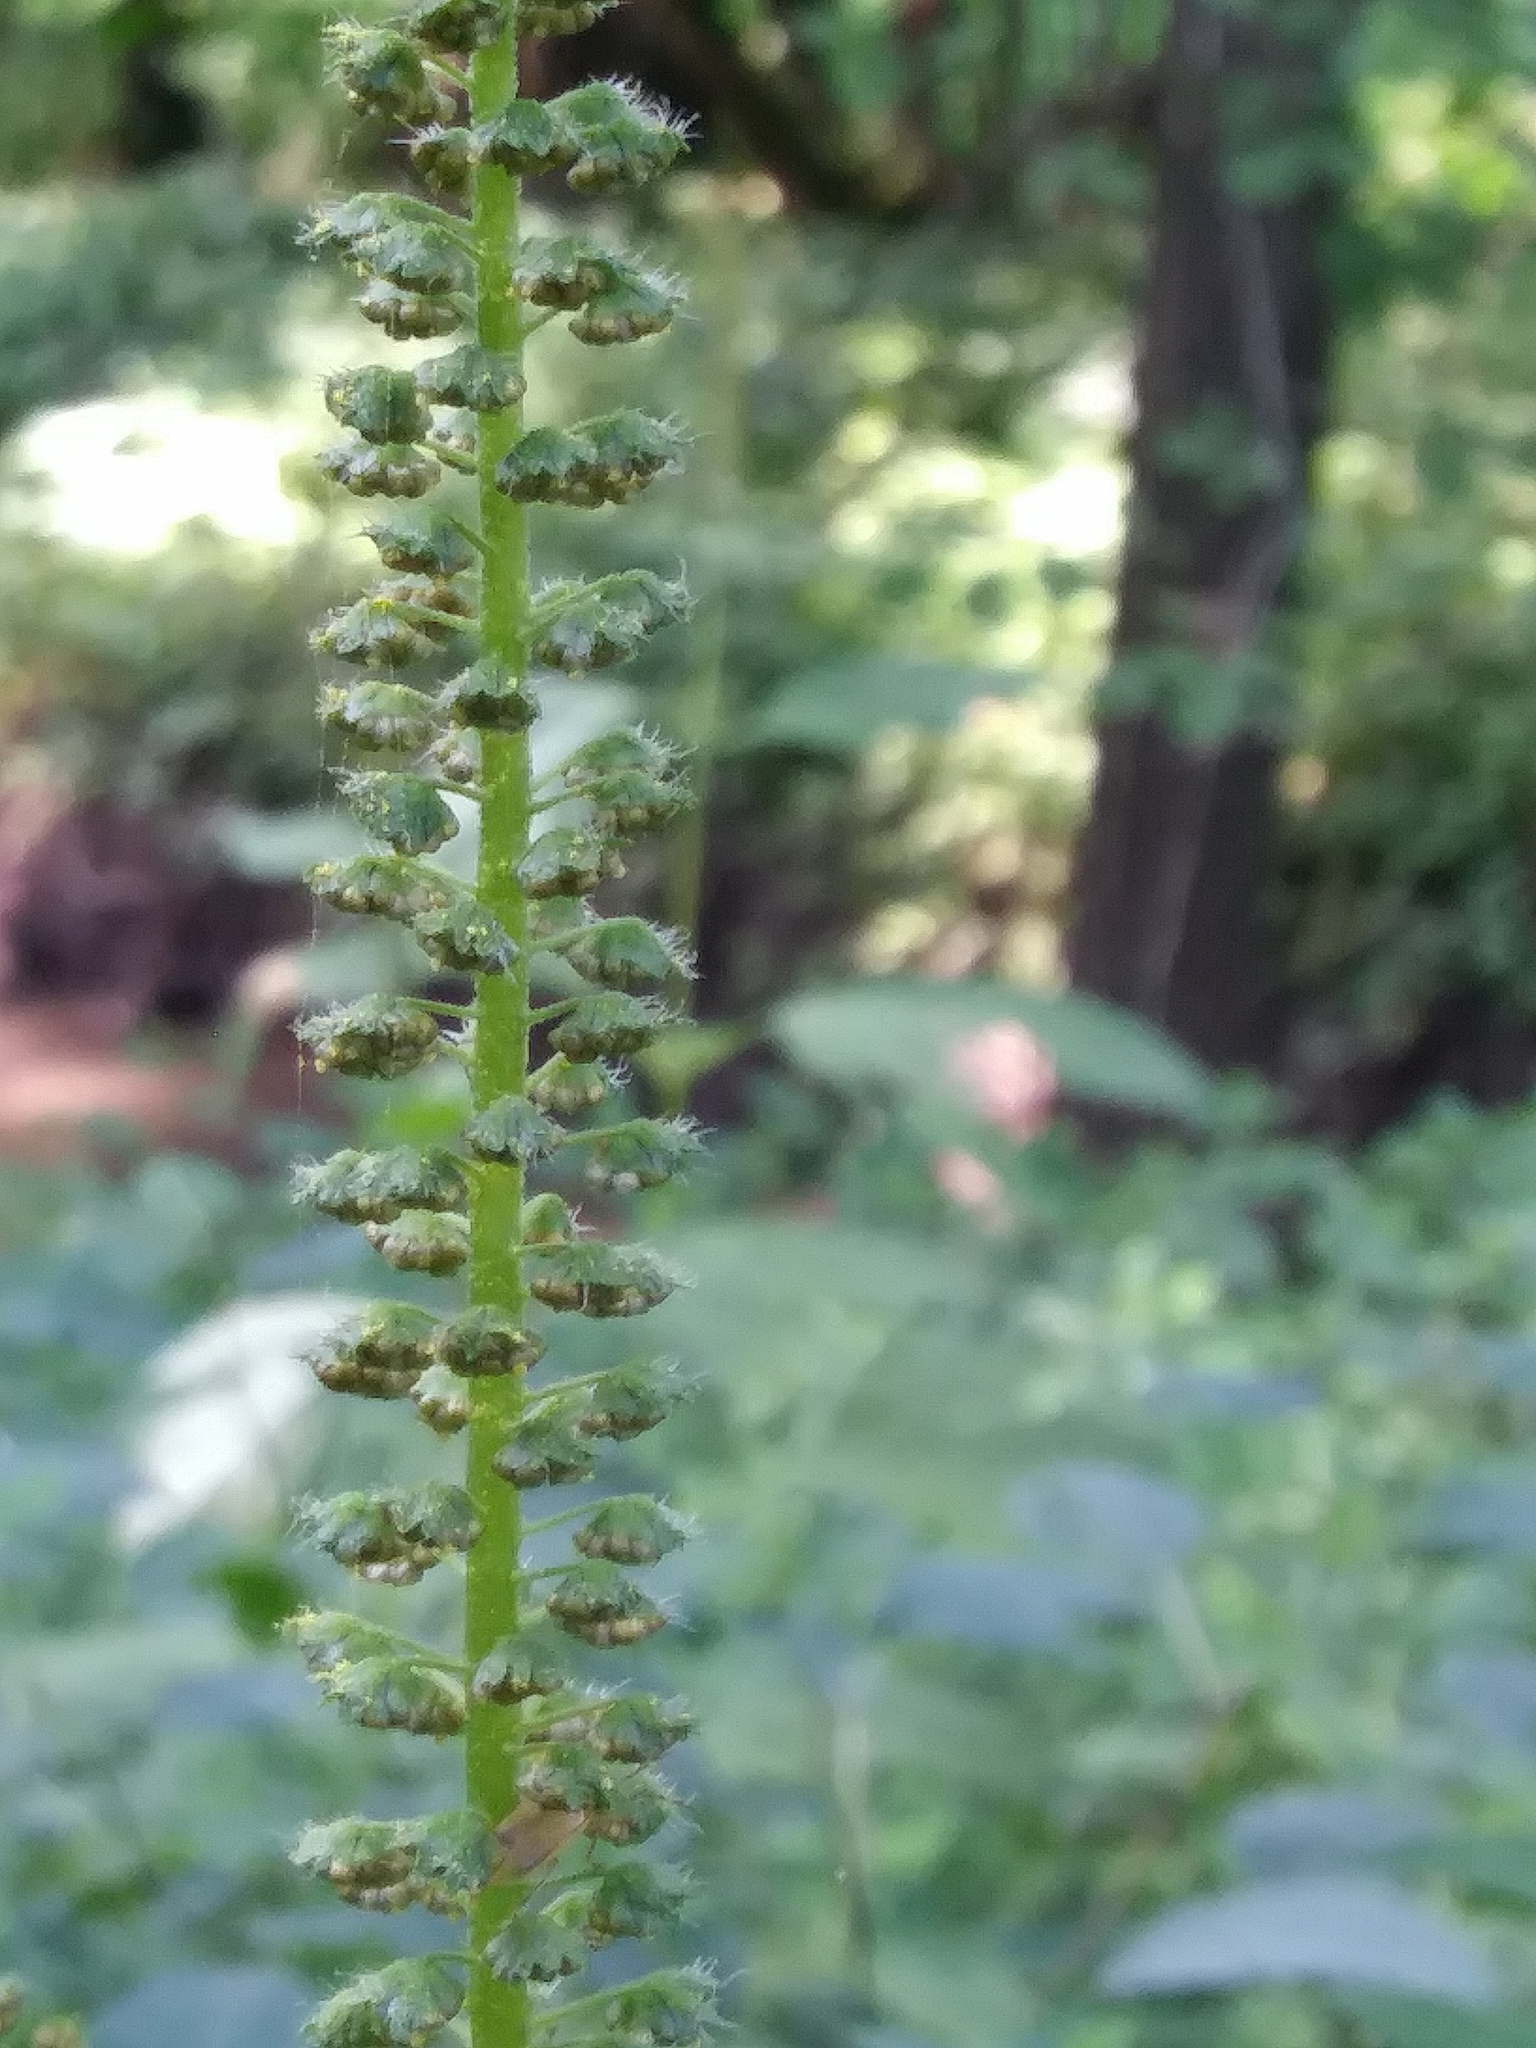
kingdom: Plantae
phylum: Tracheophyta
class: Magnoliopsida
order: Asterales
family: Asteraceae
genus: Ambrosia
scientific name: Ambrosia trifida
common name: Giant ragweed
